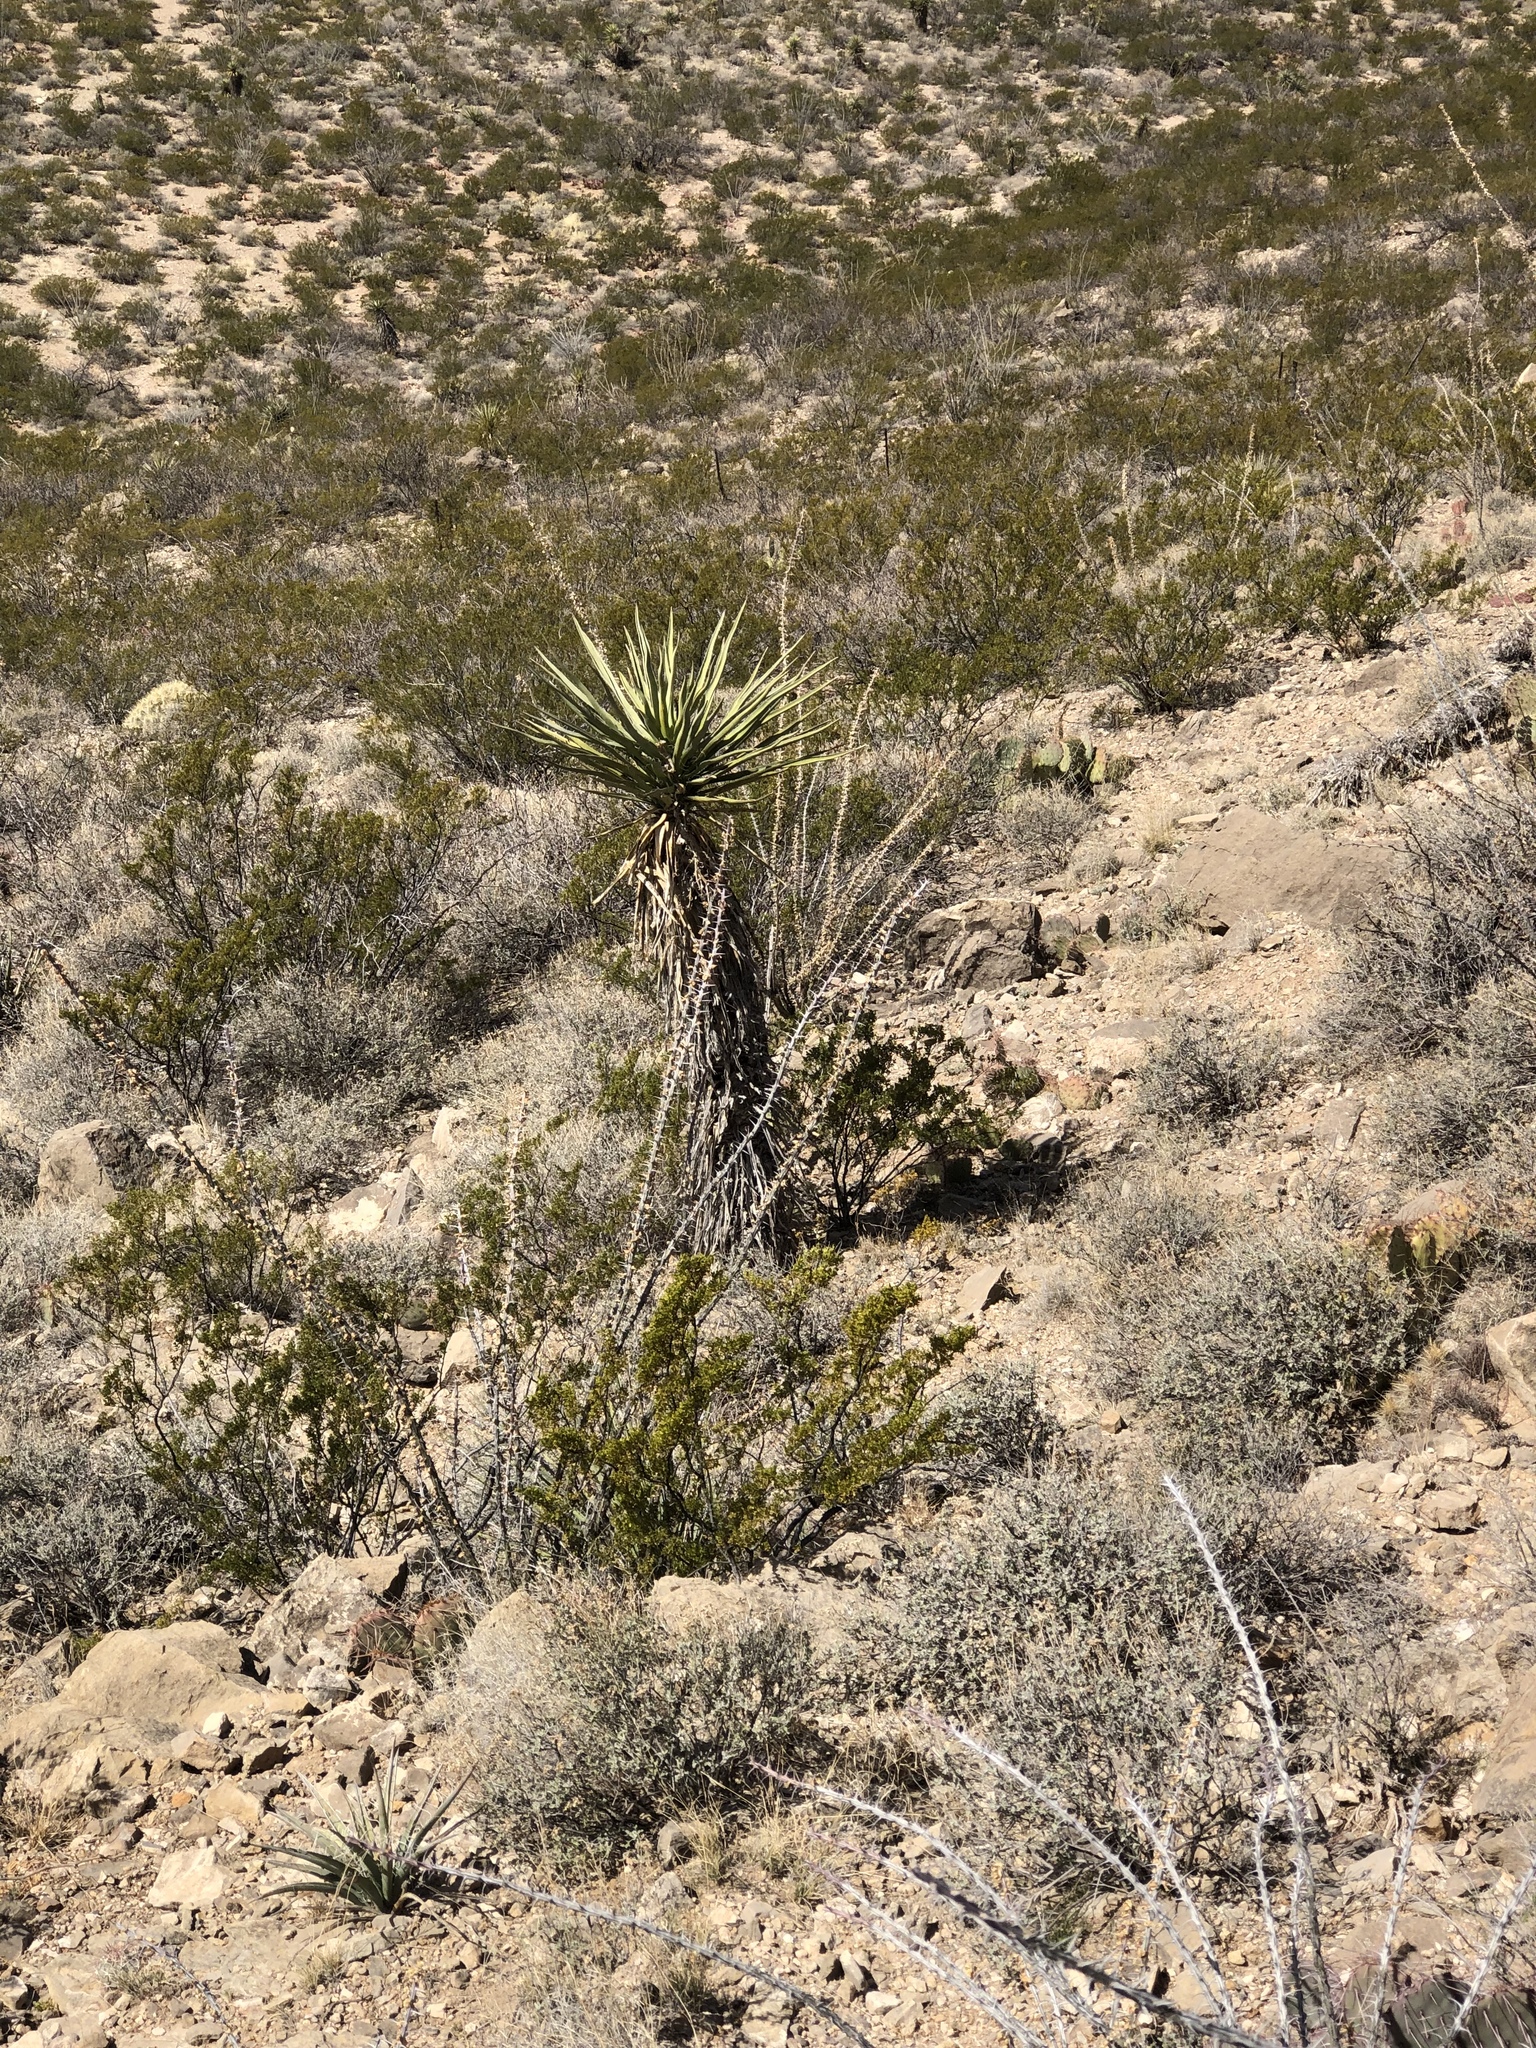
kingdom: Plantae
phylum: Tracheophyta
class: Liliopsida
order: Asparagales
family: Asparagaceae
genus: Yucca
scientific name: Yucca treculiana
